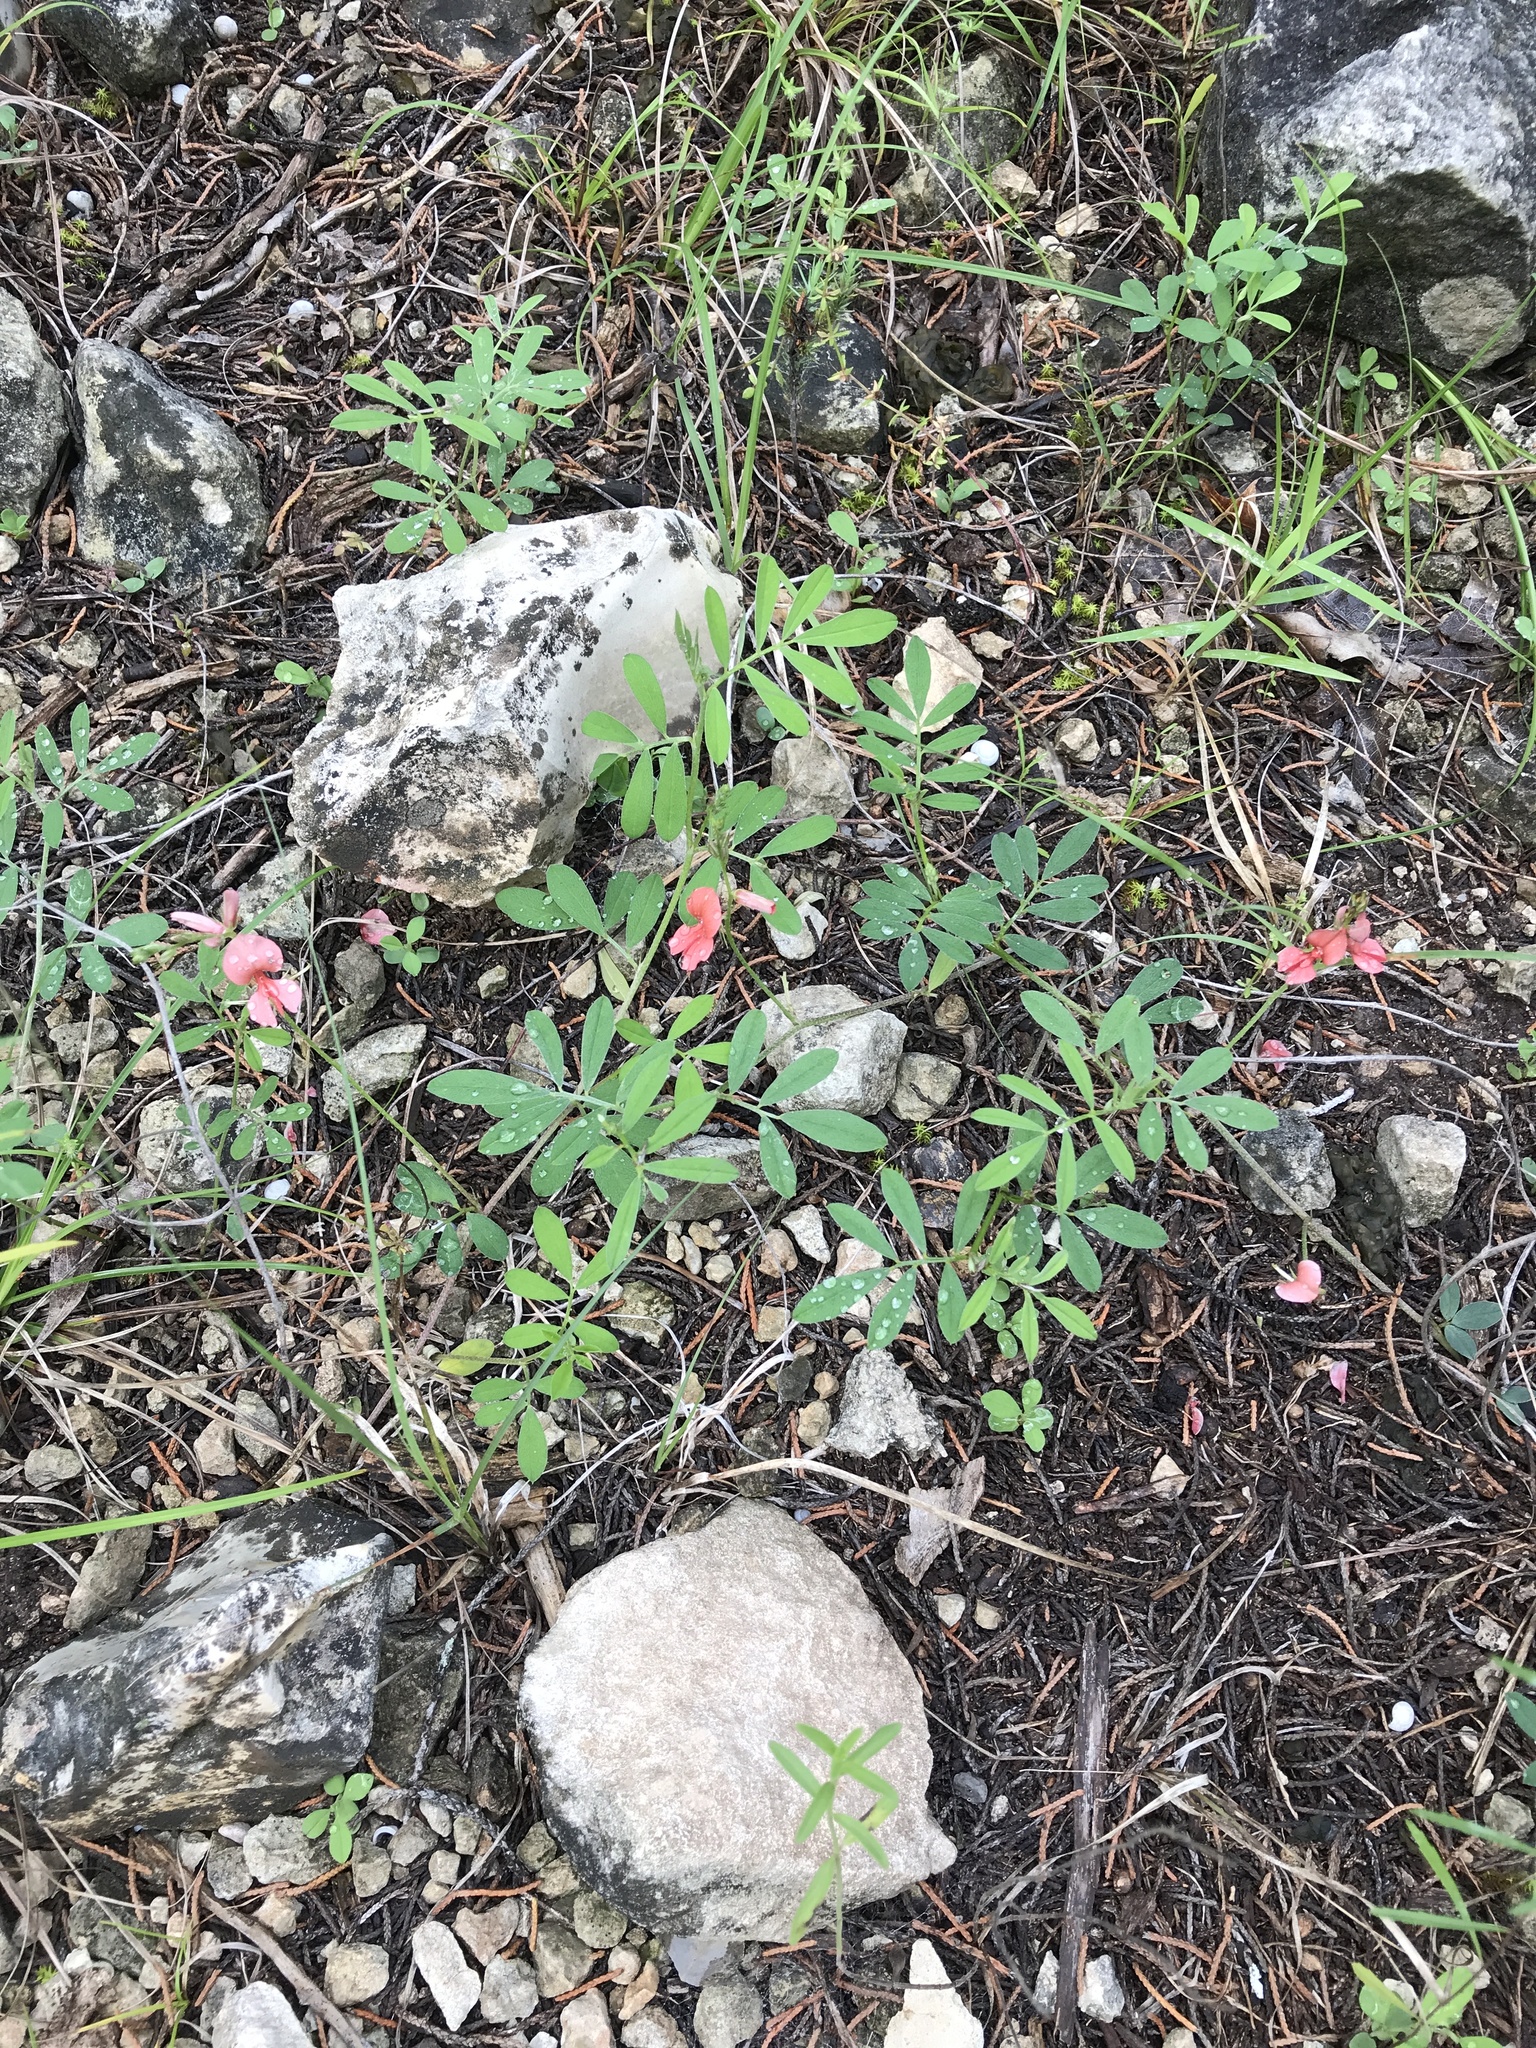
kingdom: Plantae
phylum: Tracheophyta
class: Magnoliopsida
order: Fabales
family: Fabaceae
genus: Indigofera
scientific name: Indigofera miniata
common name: Coast indigo
